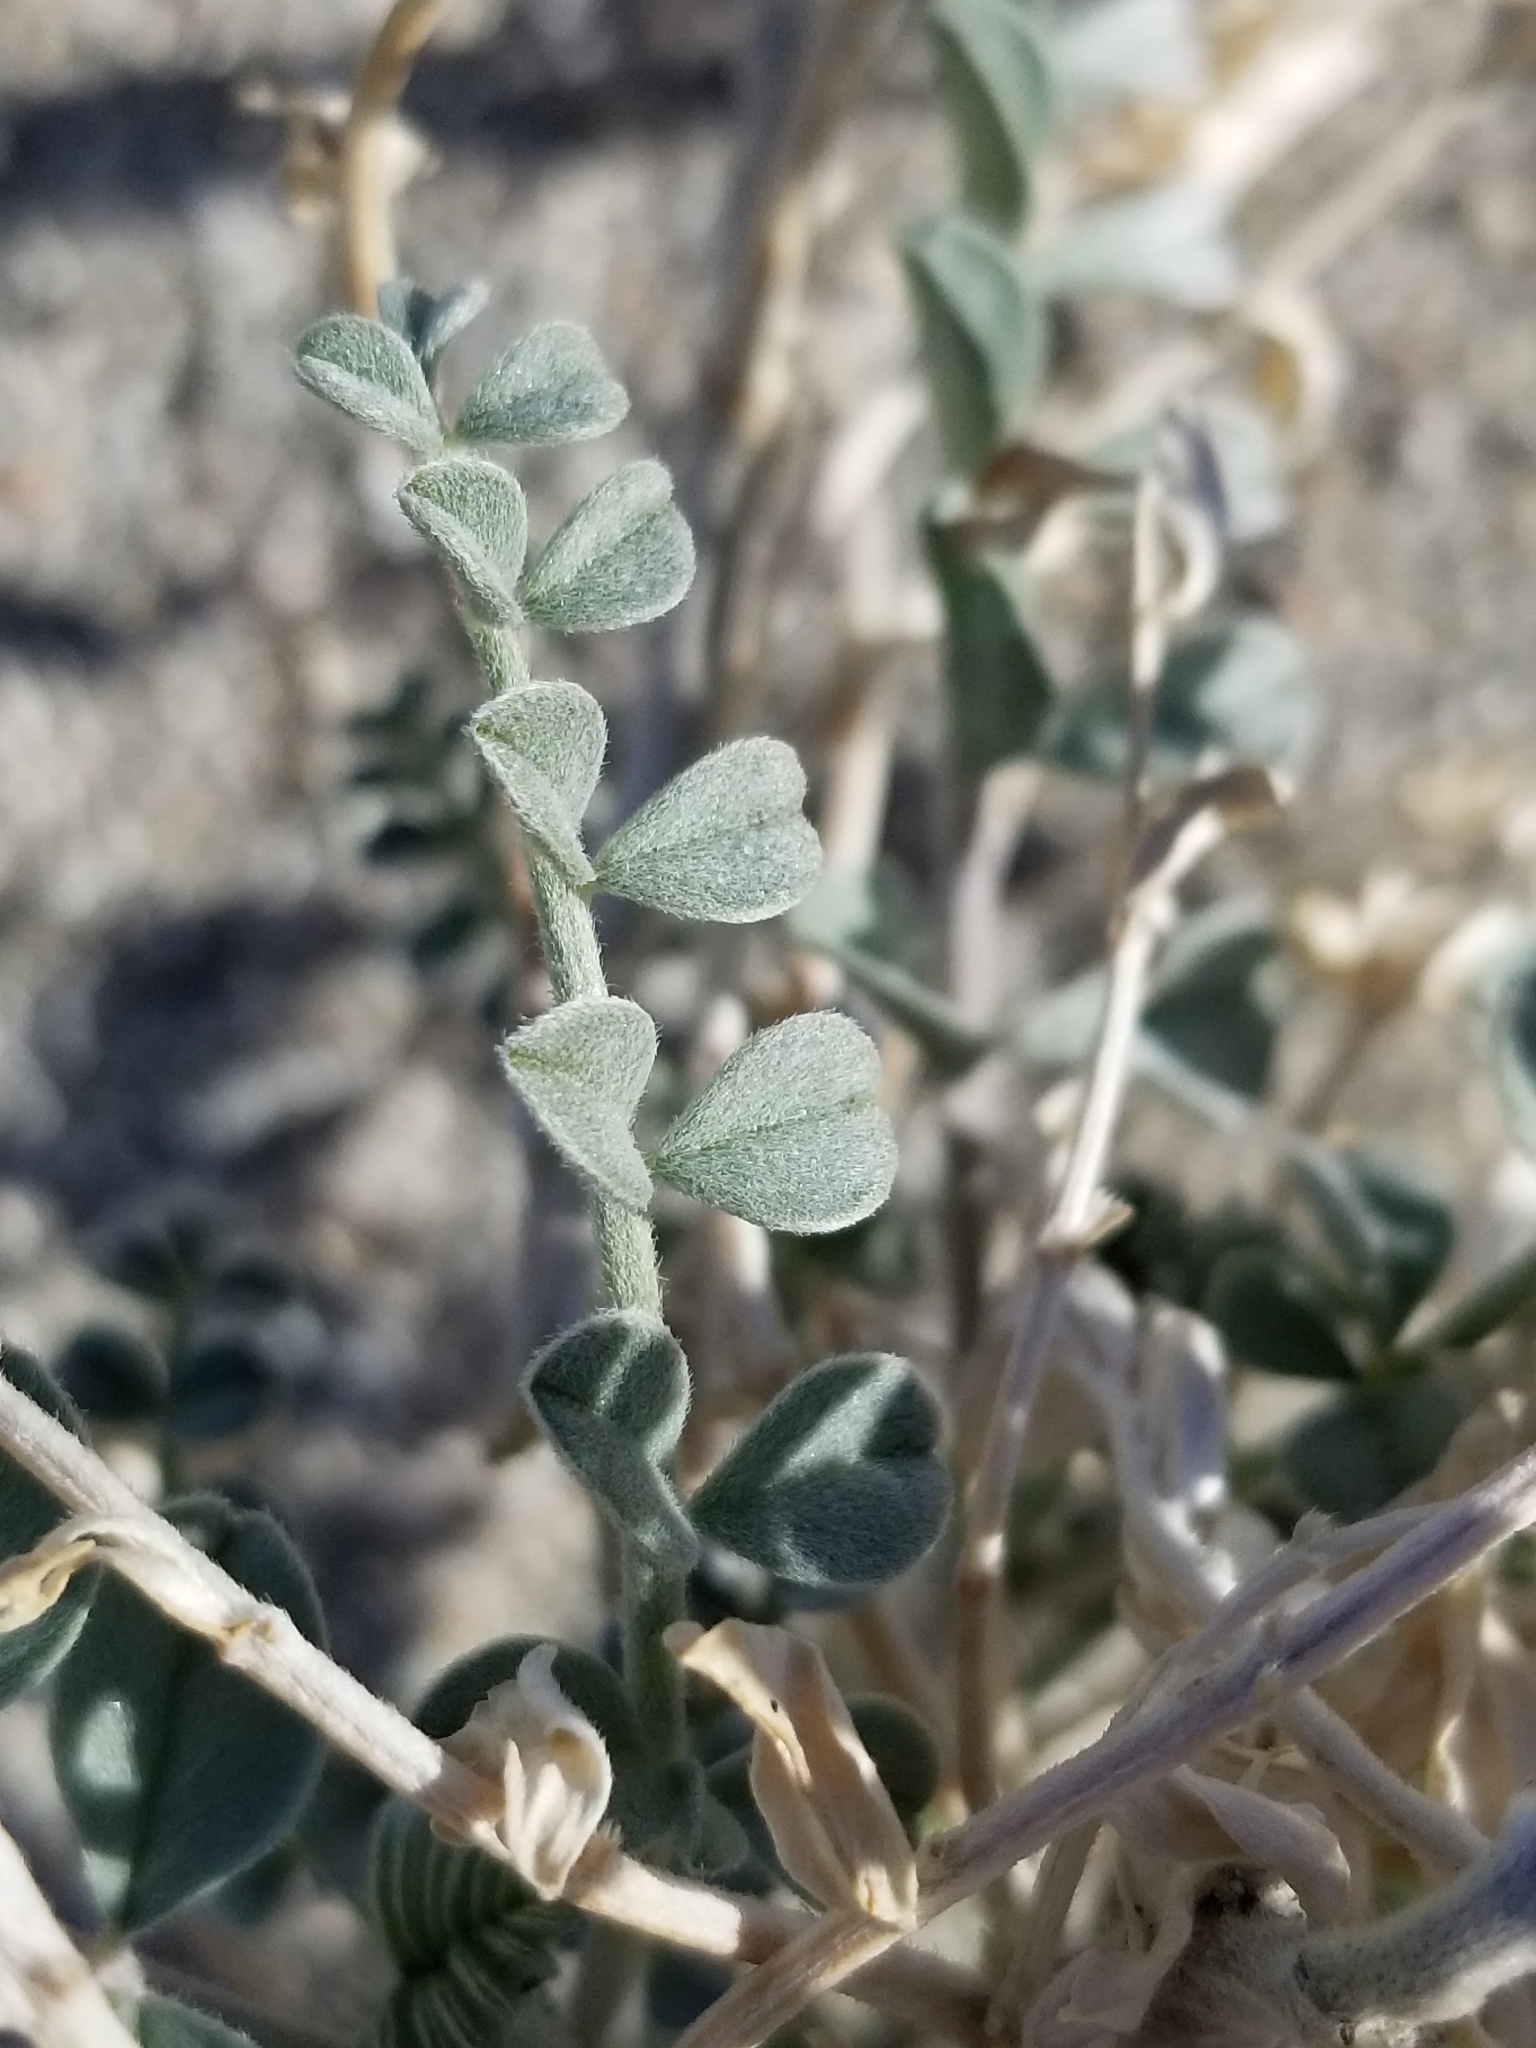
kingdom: Plantae
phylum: Tracheophyta
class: Magnoliopsida
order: Fabales
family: Fabaceae
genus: Astragalus
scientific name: Astragalus lentiginosus
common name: Freckled milkvetch
